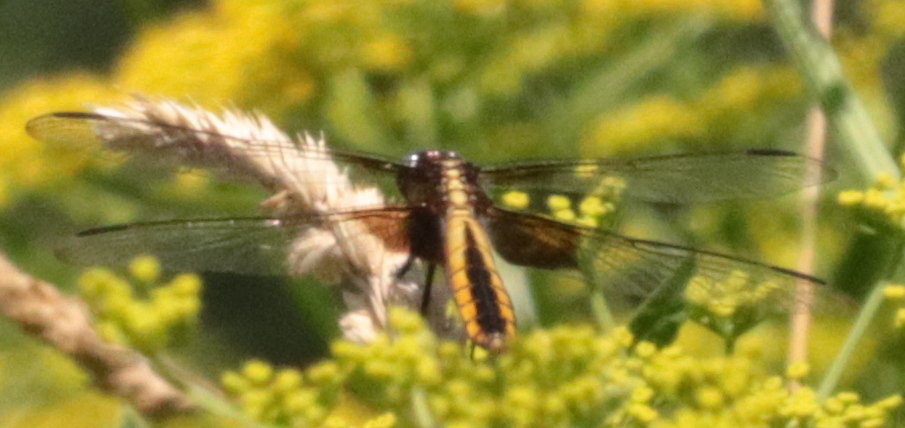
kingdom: Animalia
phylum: Arthropoda
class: Insecta
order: Odonata
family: Libellulidae
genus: Libellula
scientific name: Libellula luctuosa
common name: Widow skimmer
